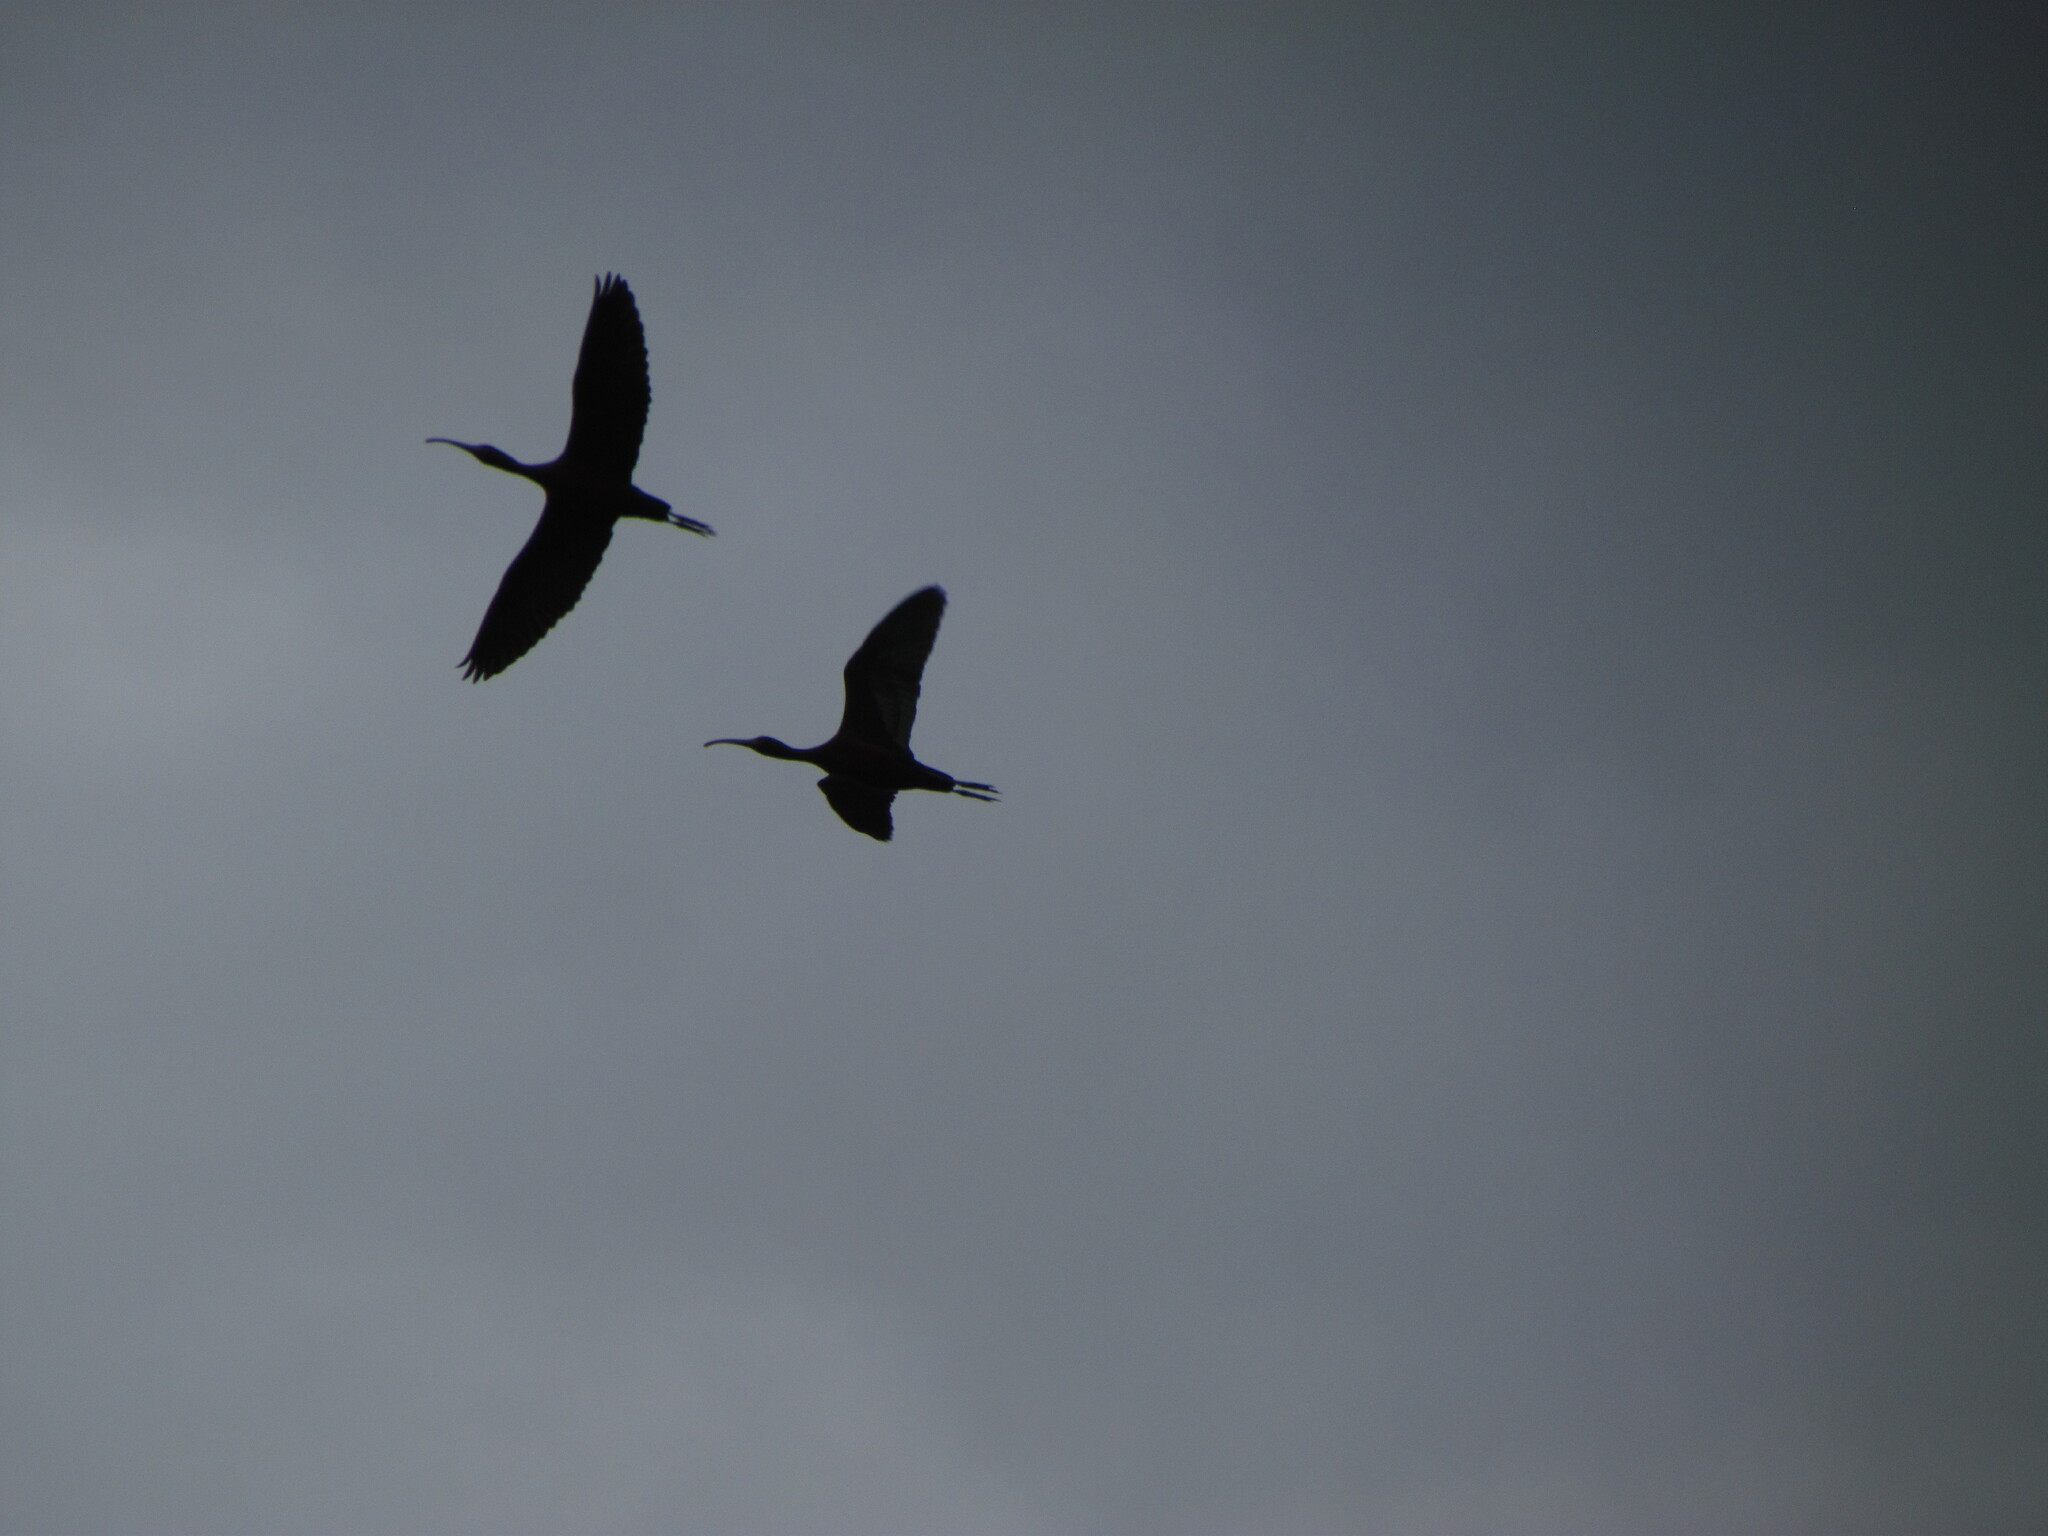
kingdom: Animalia
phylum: Chordata
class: Aves
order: Pelecaniformes
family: Threskiornithidae
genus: Plegadis
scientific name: Plegadis chihi
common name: White-faced ibis
